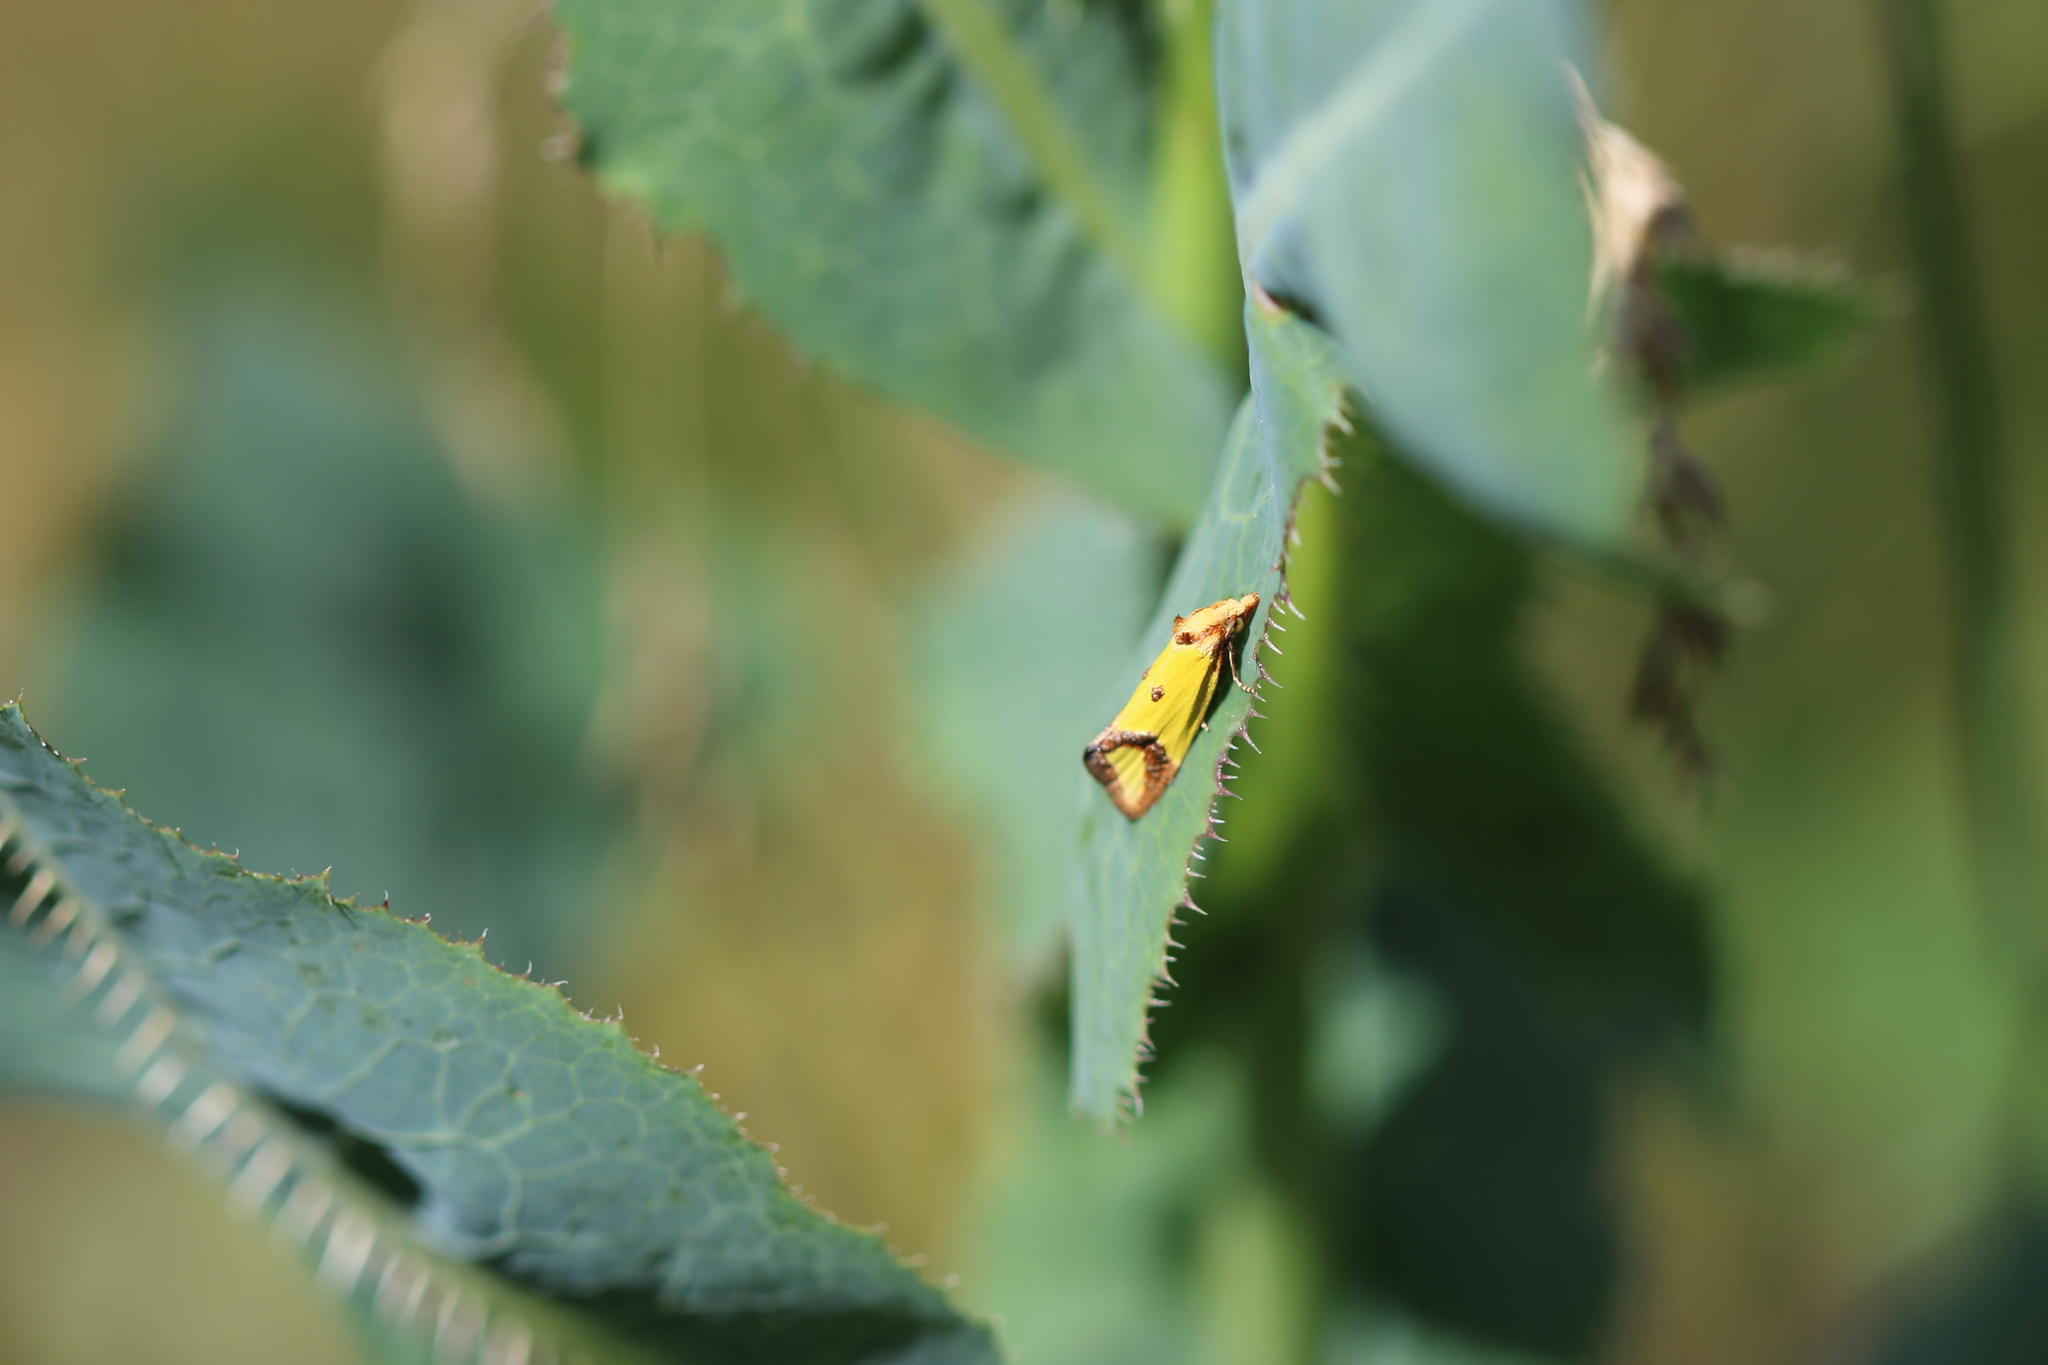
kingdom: Animalia
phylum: Arthropoda
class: Insecta
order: Lepidoptera
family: Tortricidae
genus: Agapeta
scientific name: Agapeta zoegana
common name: Sulfur knapweed root moth
